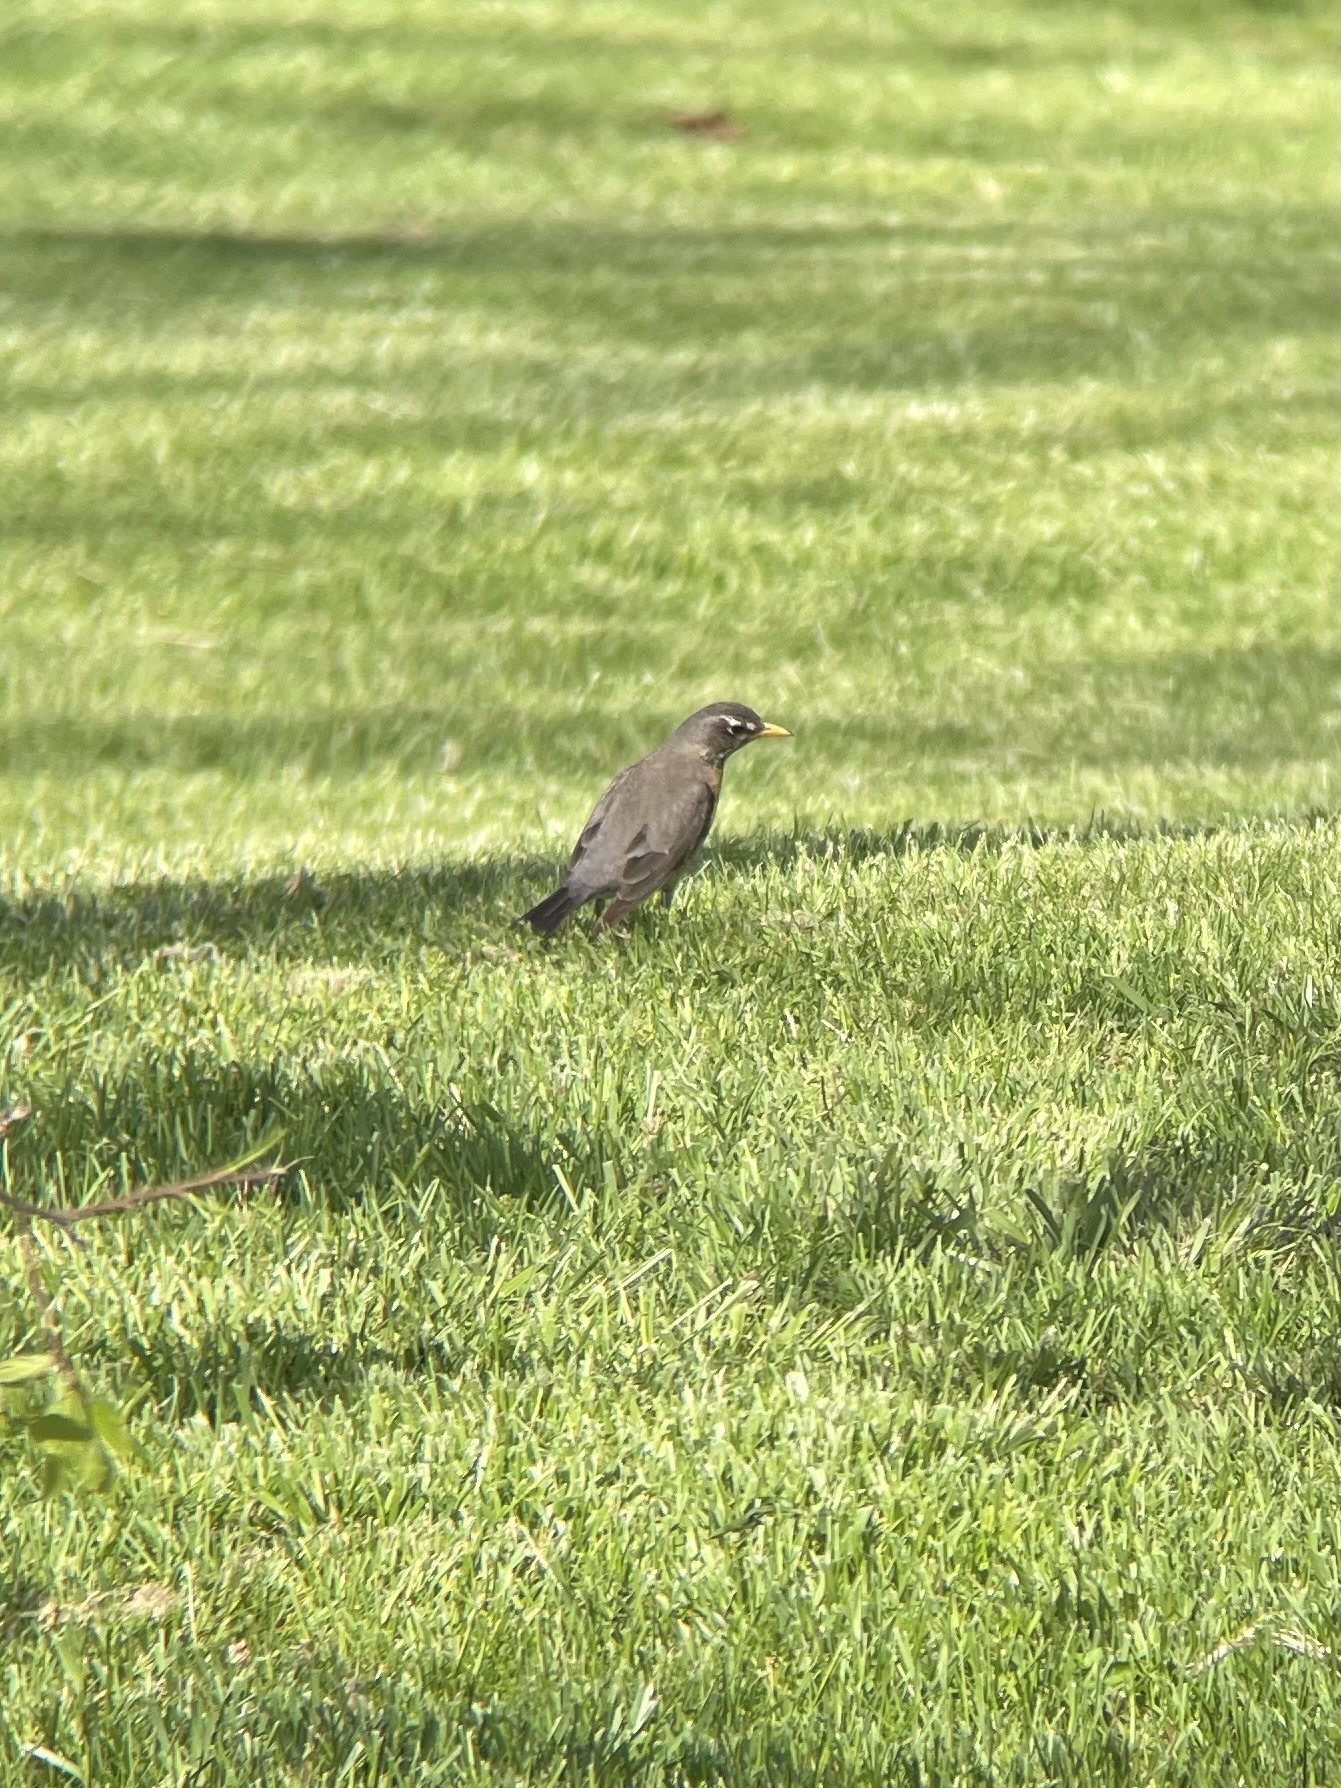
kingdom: Animalia
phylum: Chordata
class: Aves
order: Passeriformes
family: Turdidae
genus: Turdus
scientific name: Turdus migratorius
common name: American robin
